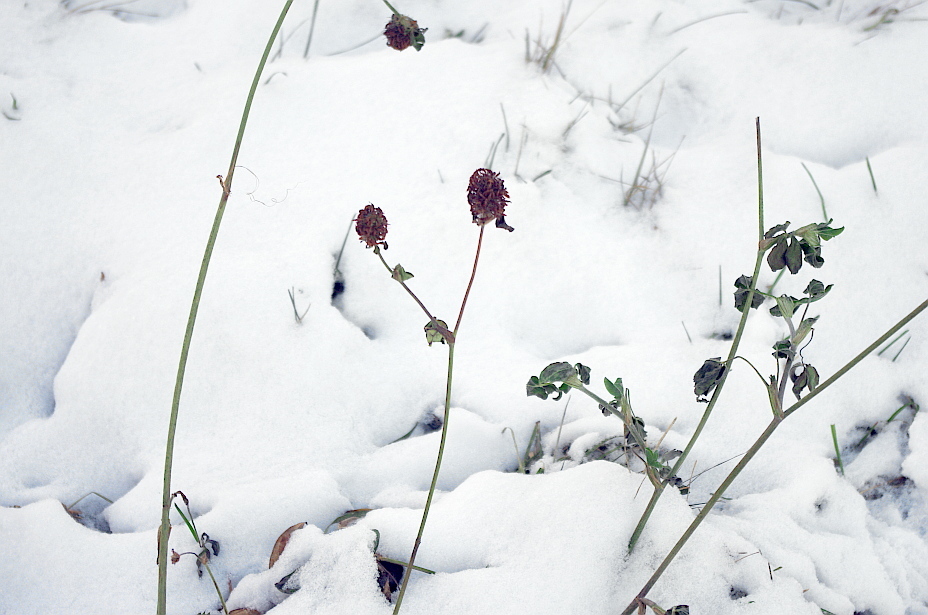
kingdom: Plantae
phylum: Tracheophyta
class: Magnoliopsida
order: Fabales
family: Fabaceae
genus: Trifolium
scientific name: Trifolium pratense
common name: Red clover
